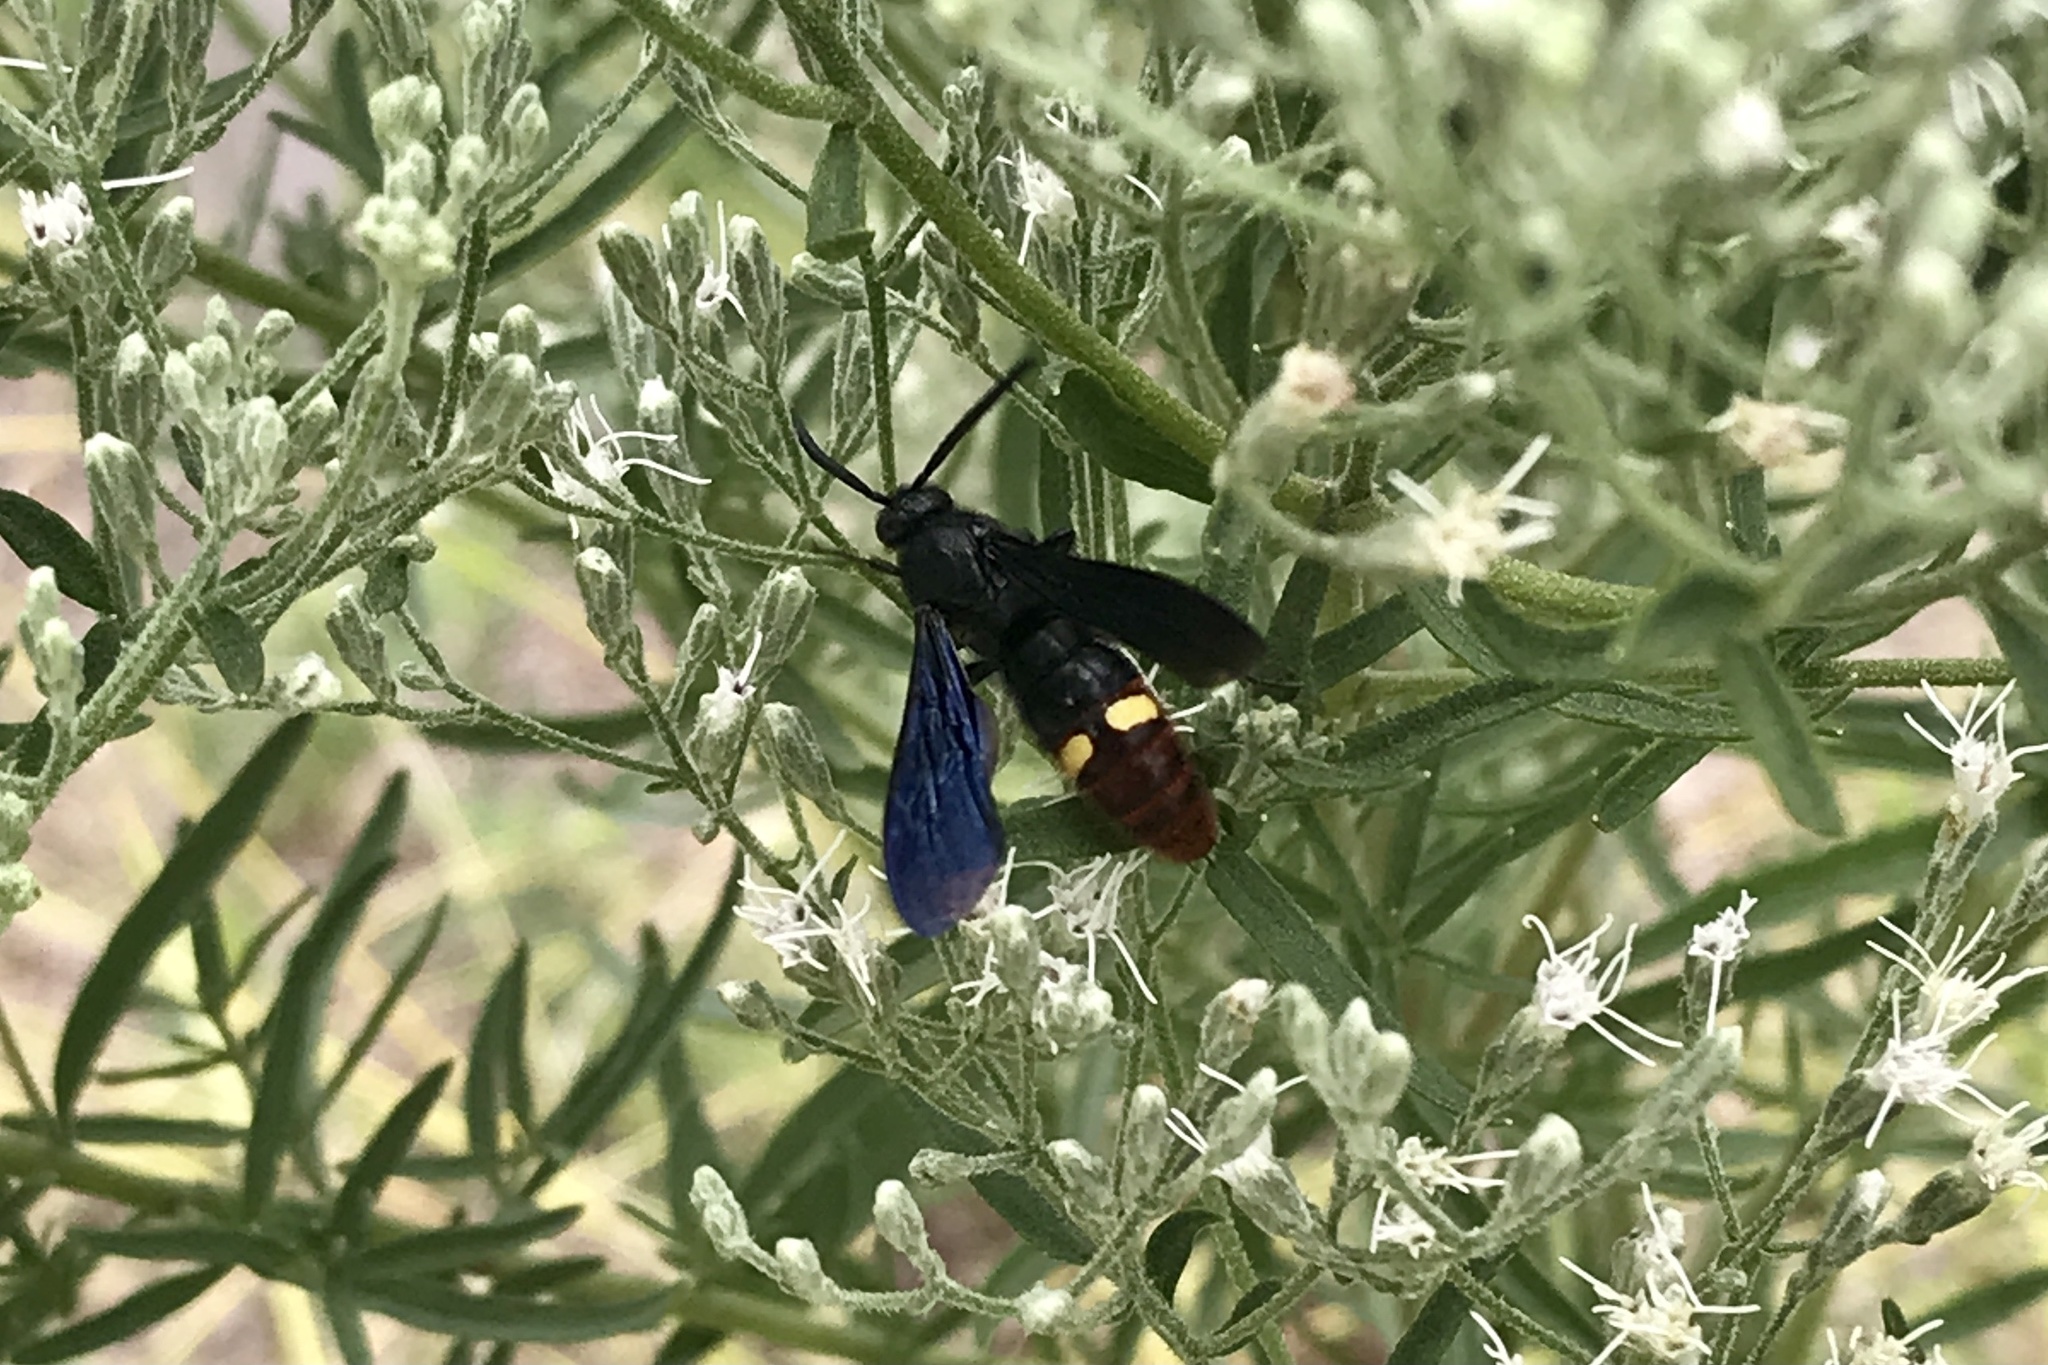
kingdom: Animalia
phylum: Arthropoda
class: Insecta
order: Hymenoptera
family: Scoliidae
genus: Scolia
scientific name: Scolia dubia
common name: Blue-winged scoliid wasp
